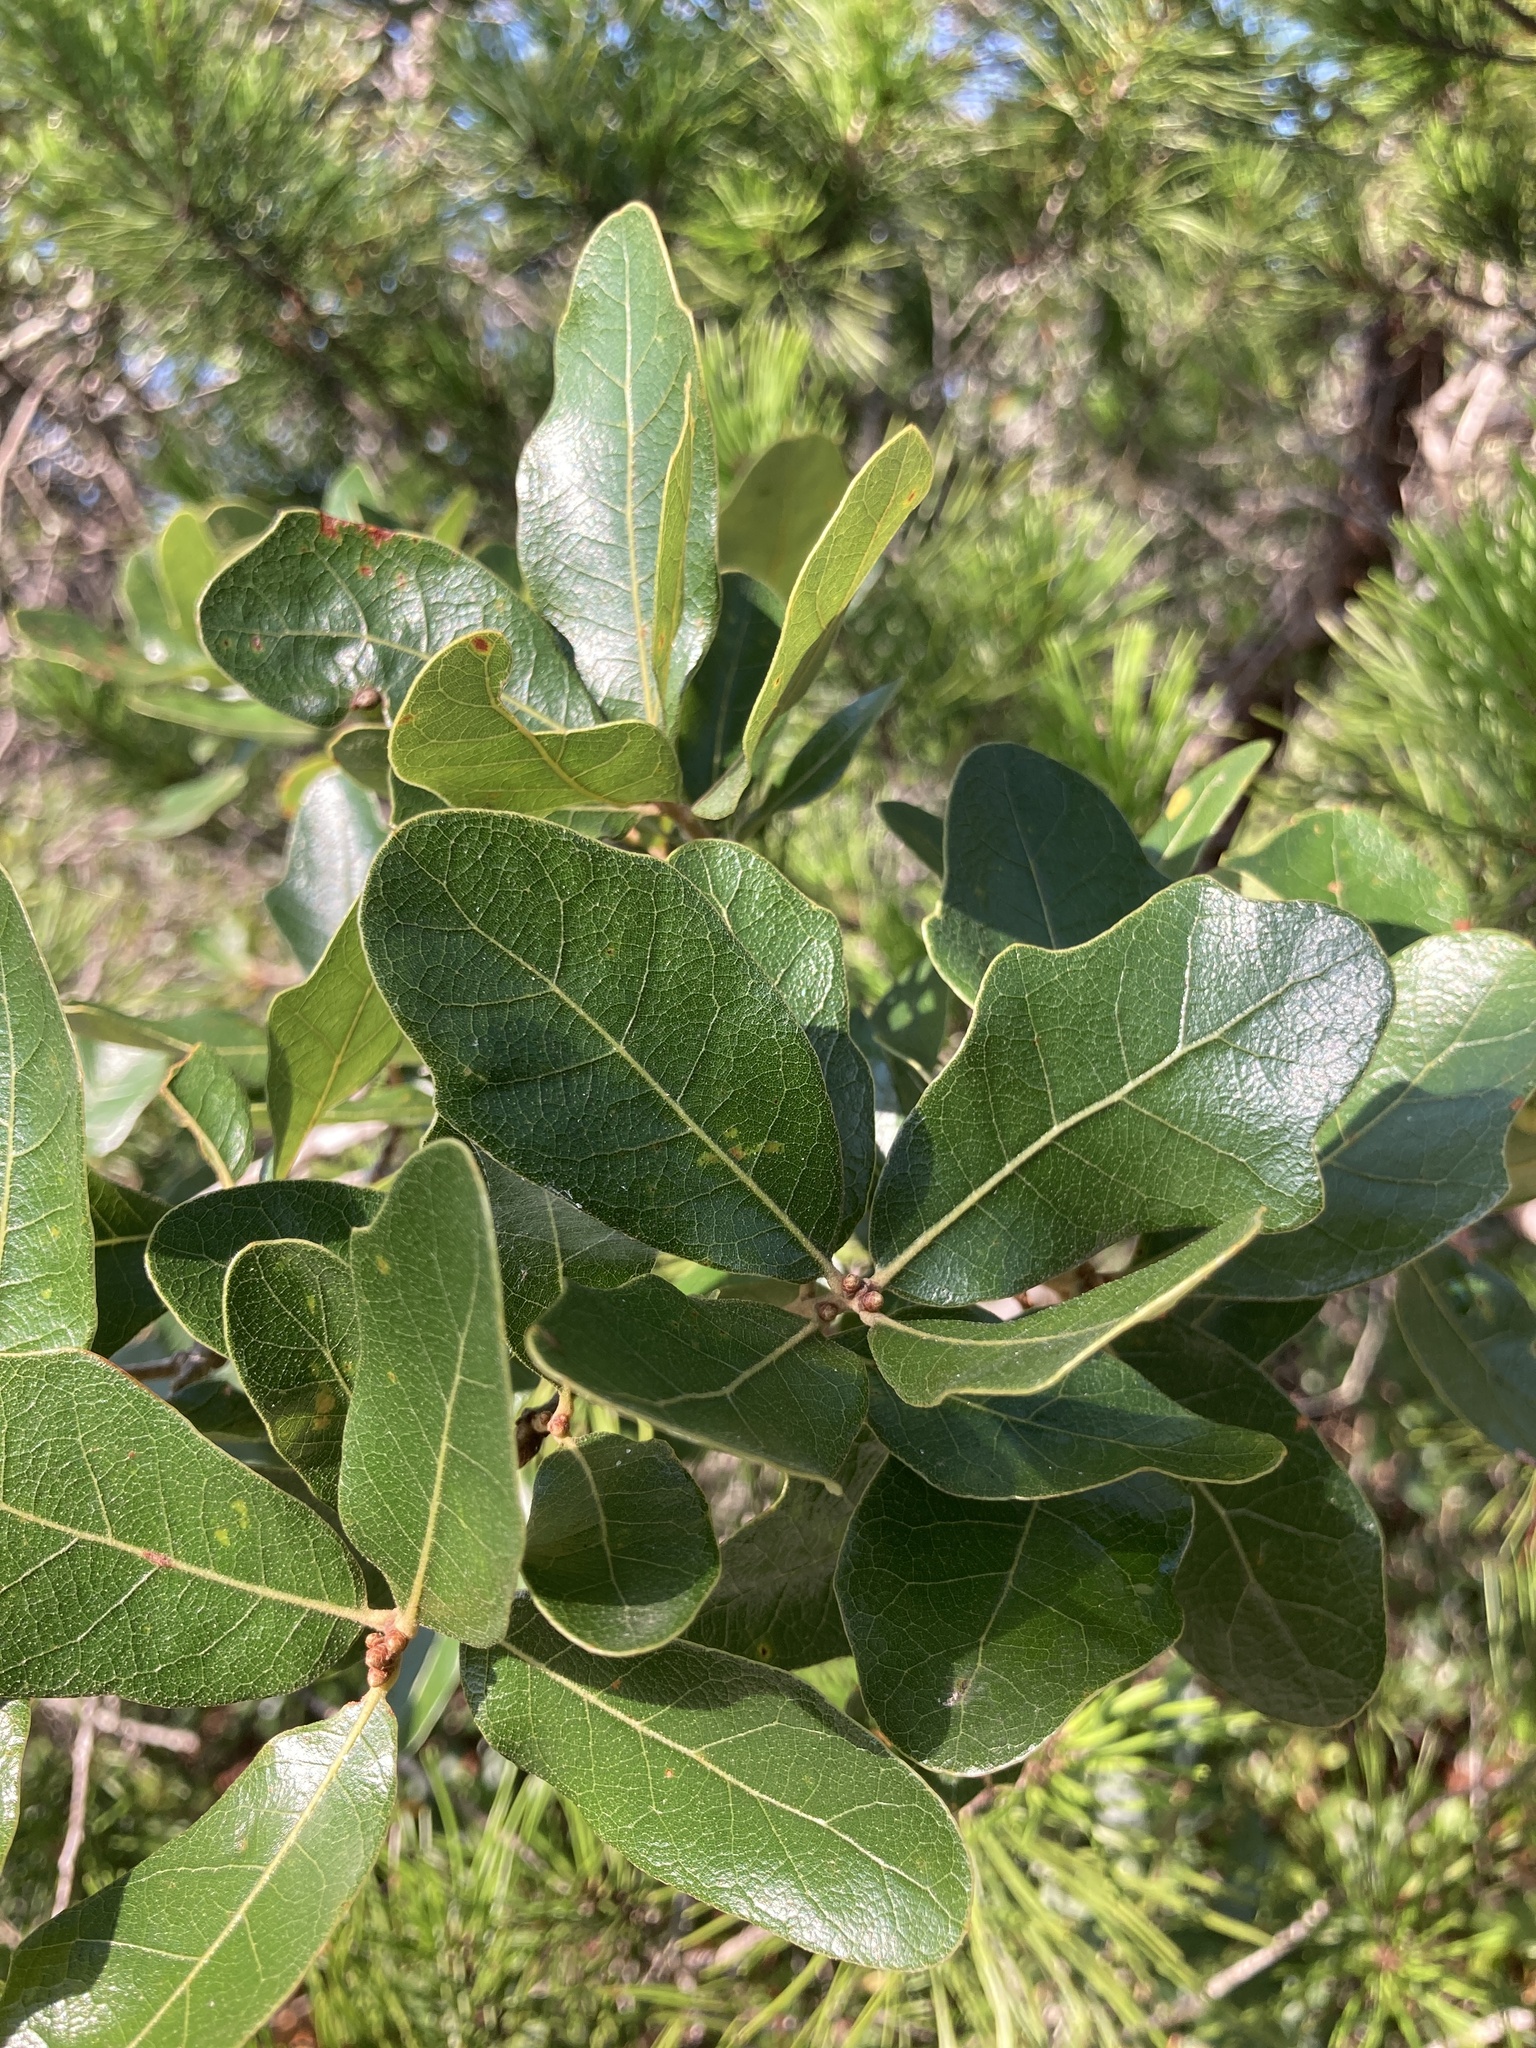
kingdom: Plantae
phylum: Tracheophyta
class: Magnoliopsida
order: Fagales
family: Fagaceae
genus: Quercus
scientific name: Quercus chapmanii
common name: Chapman oak
